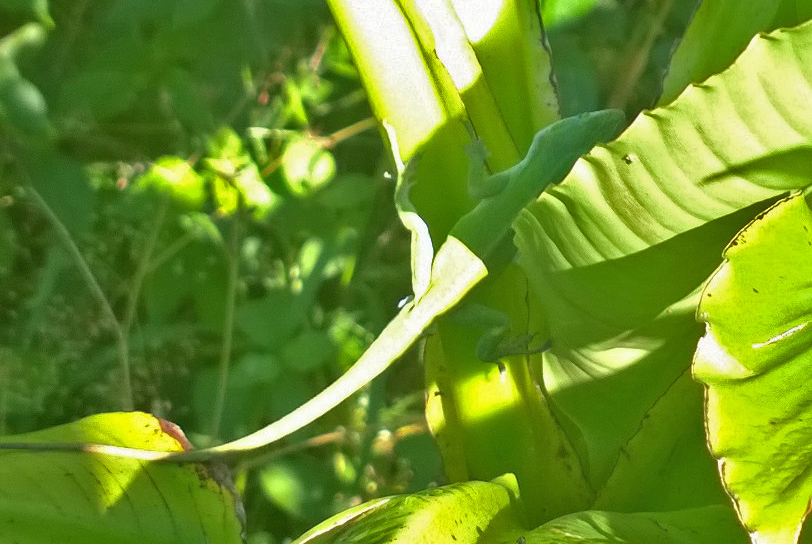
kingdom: Animalia
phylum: Chordata
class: Squamata
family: Dactyloidae
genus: Anolis
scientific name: Anolis carolinensis
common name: Green anole
